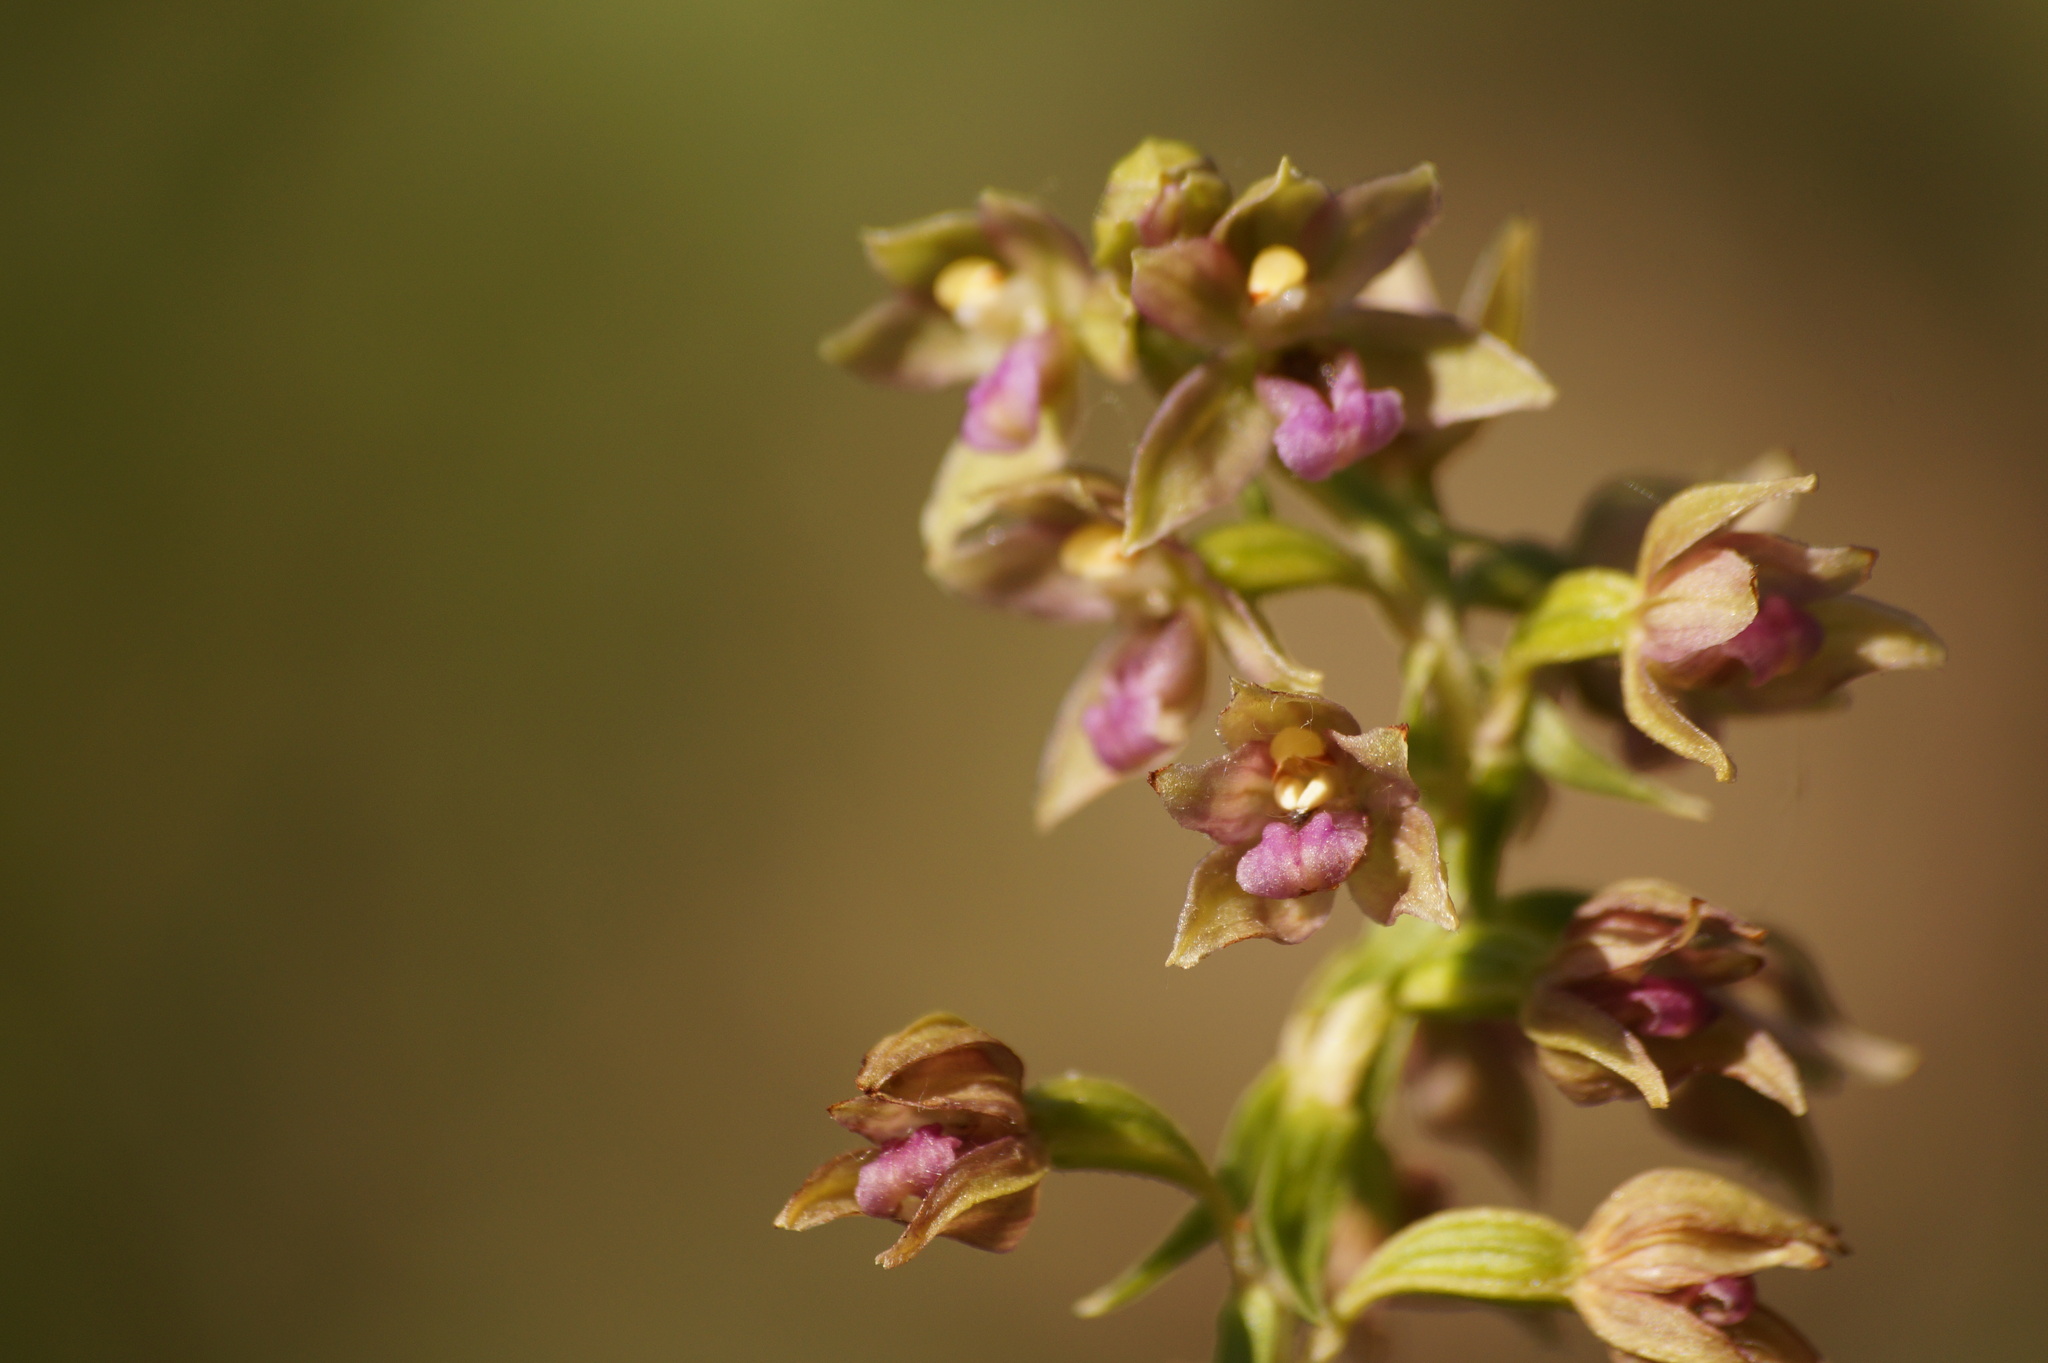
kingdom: Plantae
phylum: Tracheophyta
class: Liliopsida
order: Asparagales
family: Orchidaceae
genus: Epipactis
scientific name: Epipactis helleborine
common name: Broad-leaved helleborine
